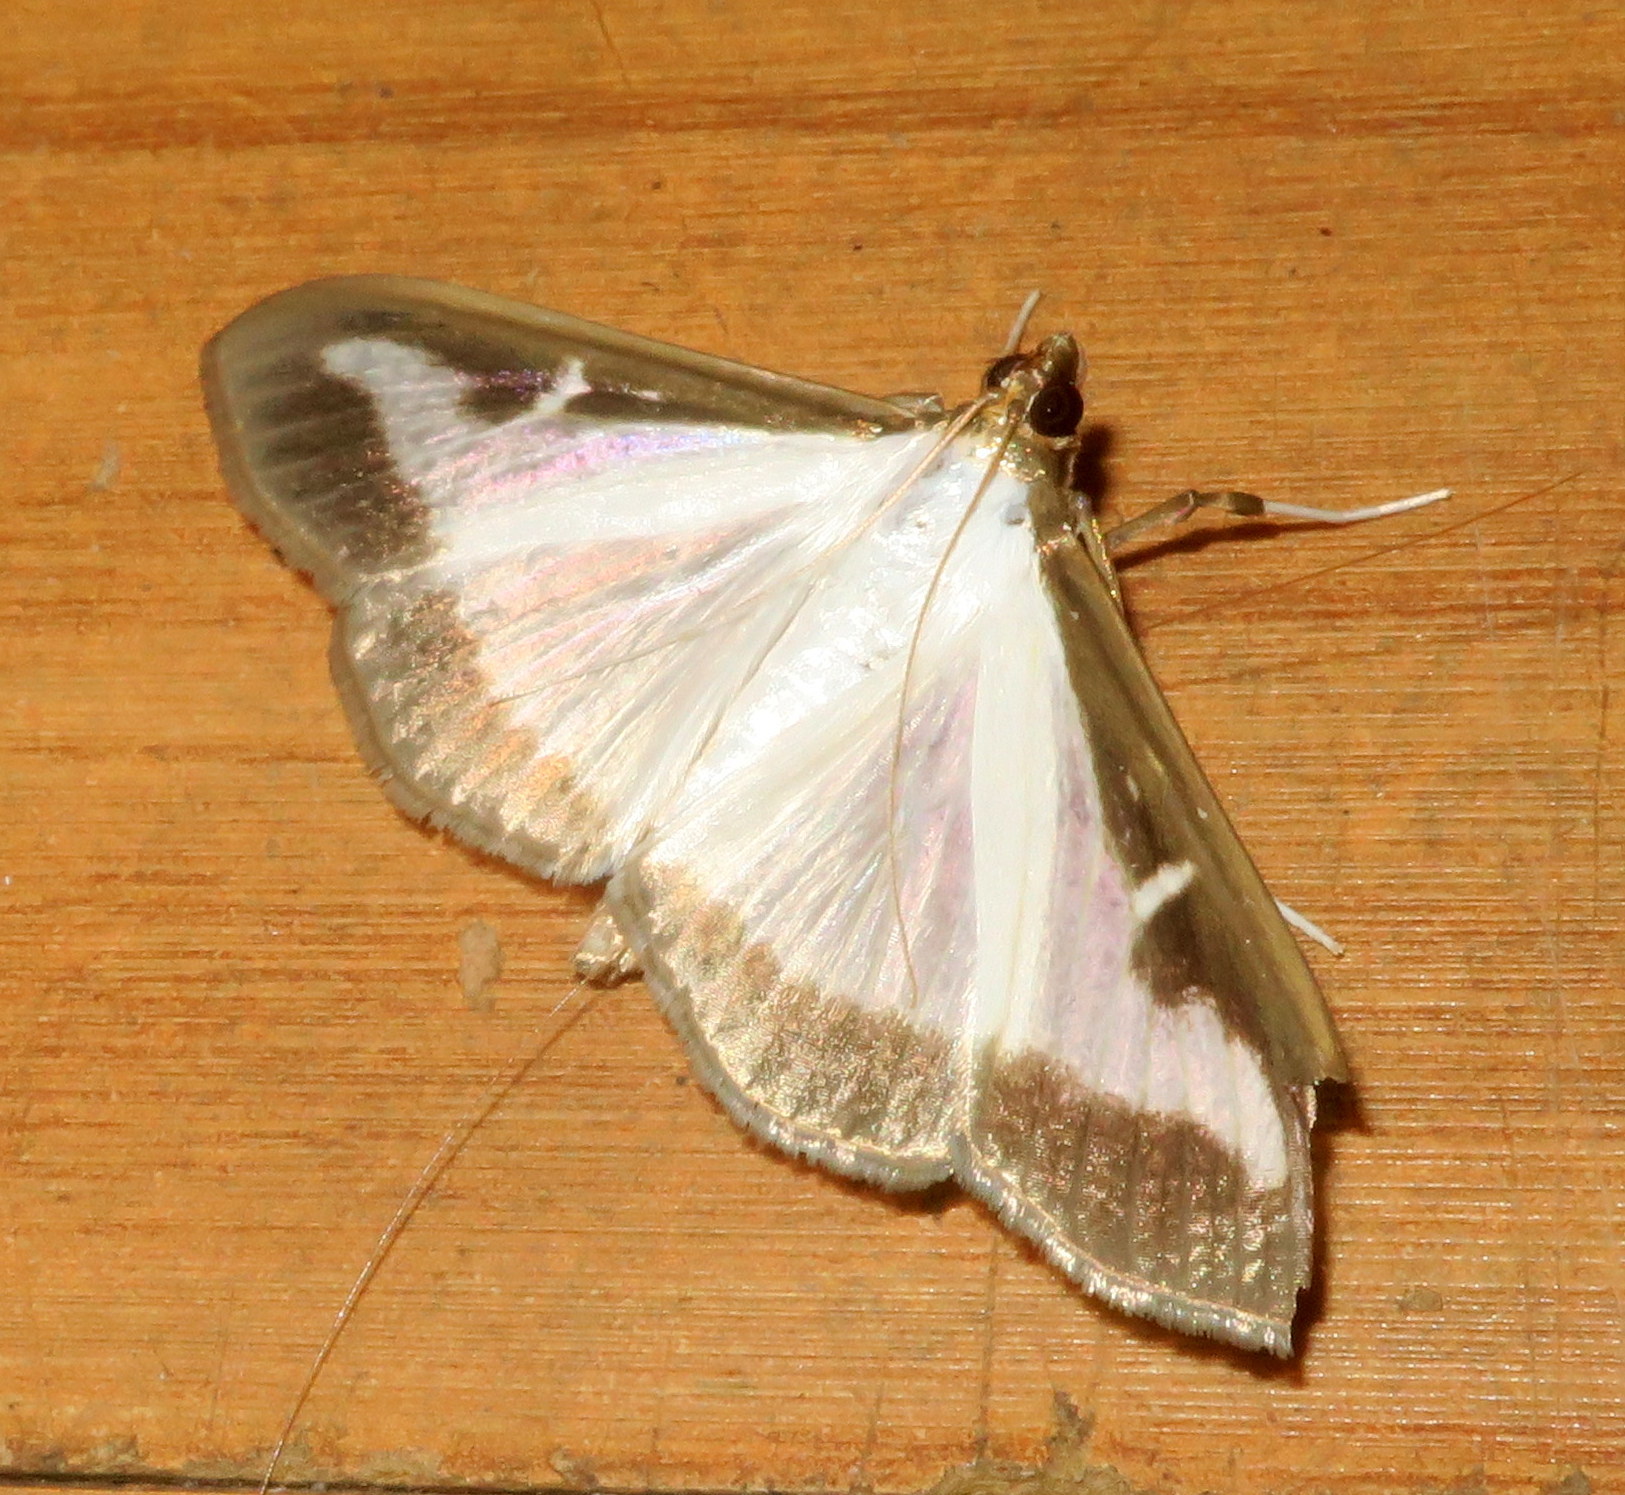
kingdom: Animalia
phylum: Arthropoda
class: Insecta
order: Lepidoptera
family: Crambidae
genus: Cydalima
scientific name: Cydalima perspectalis
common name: Box tree moth
